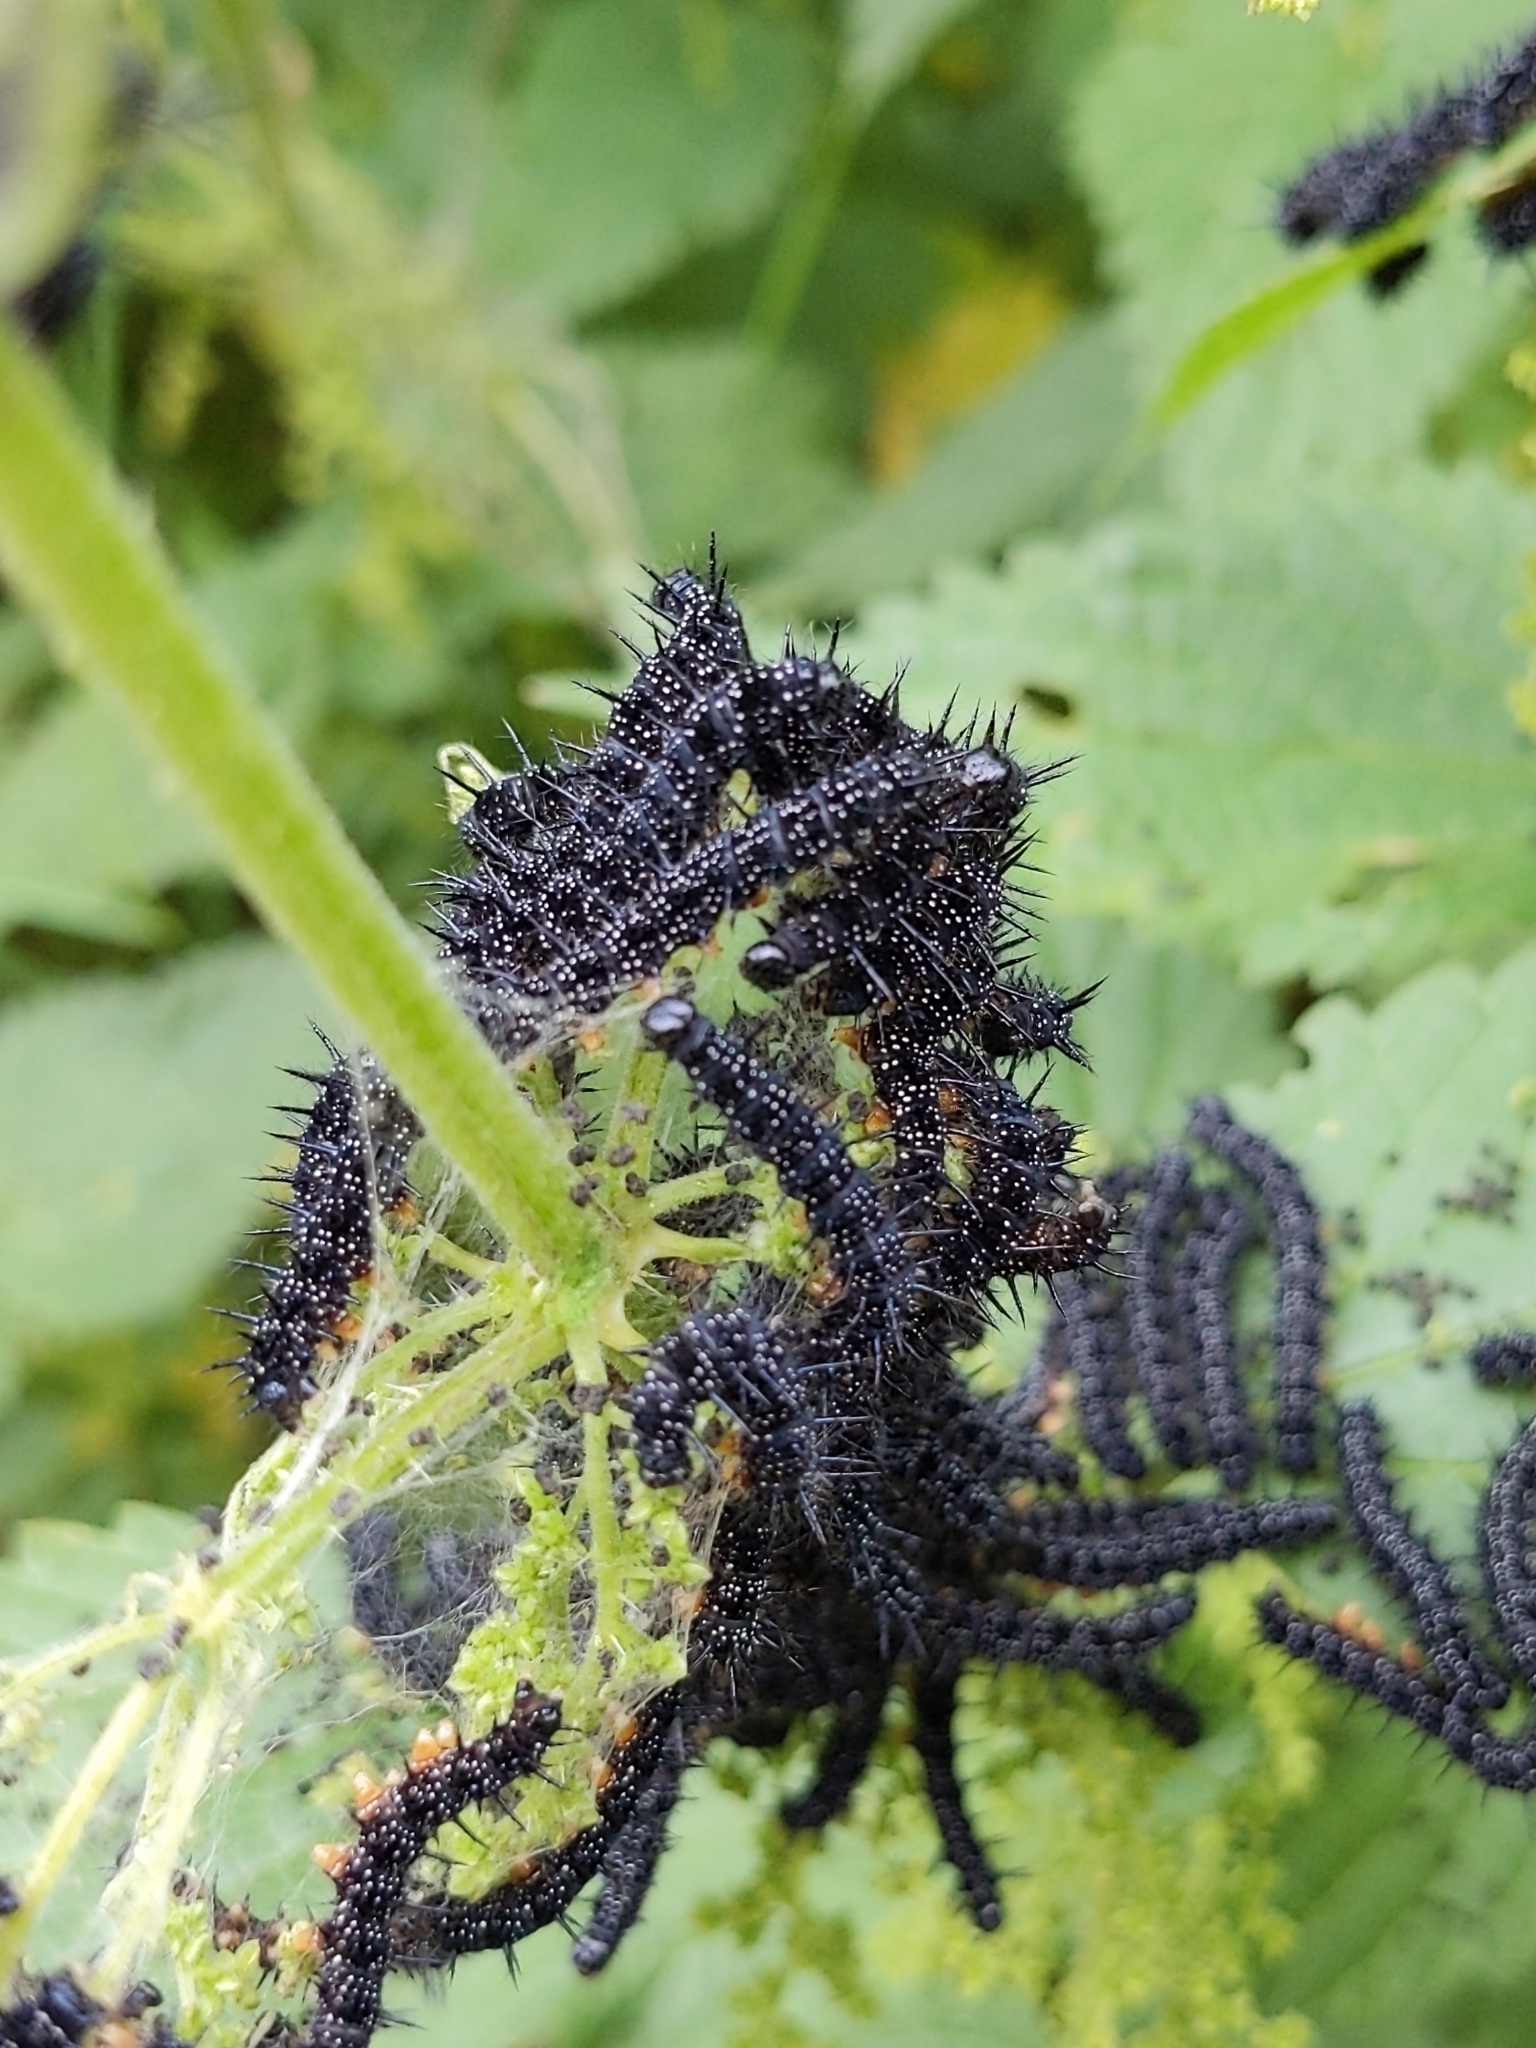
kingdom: Animalia
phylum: Arthropoda
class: Insecta
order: Lepidoptera
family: Nymphalidae
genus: Aglais
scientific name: Aglais io
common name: Peacock
